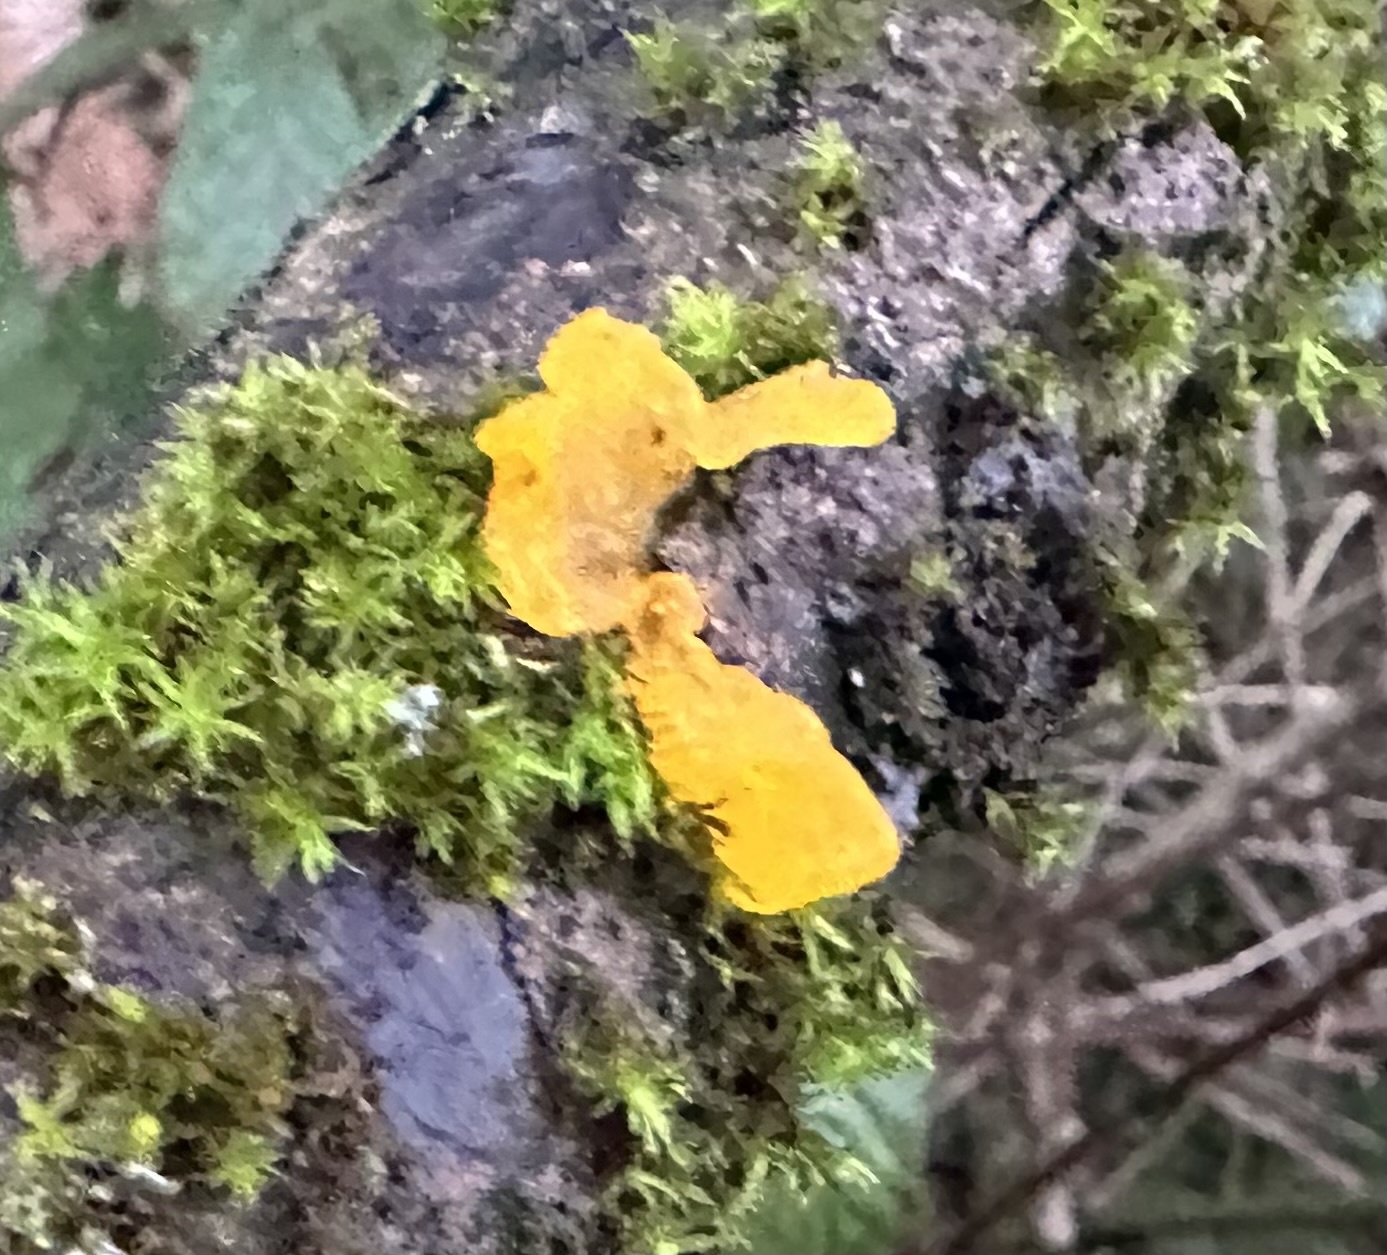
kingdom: Fungi
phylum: Basidiomycota
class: Tremellomycetes
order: Tremellales
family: Tremellaceae
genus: Tremella
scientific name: Tremella mesenterica
